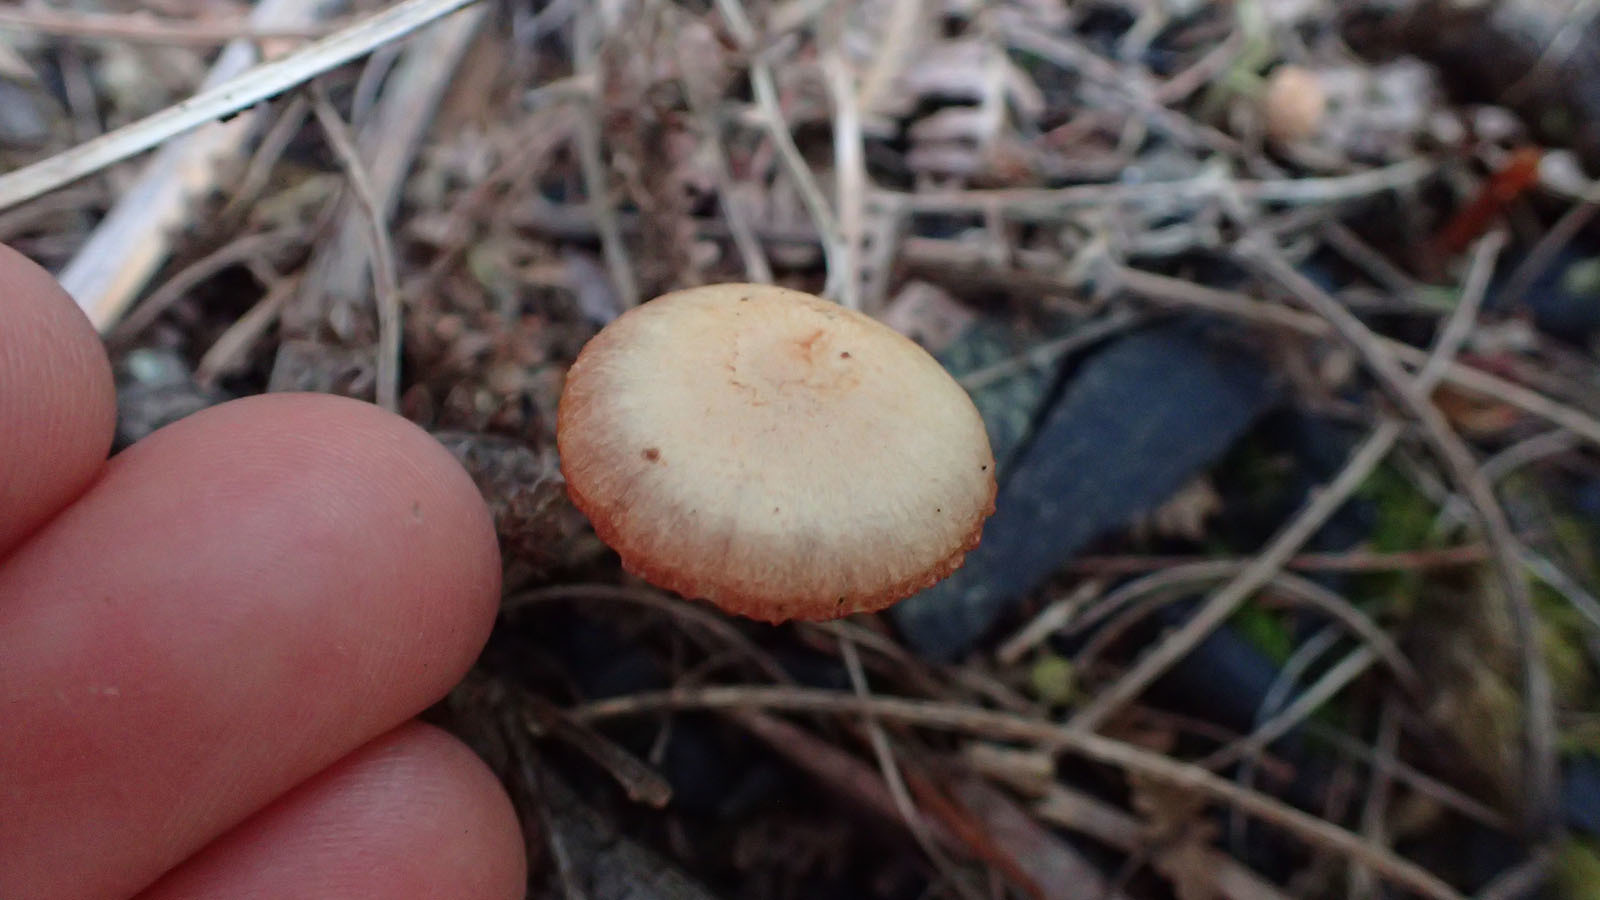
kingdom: Fungi
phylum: Basidiomycota
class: Agaricomycetes
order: Agaricales
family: Hydnangiaceae
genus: Laccaria
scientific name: Laccaria laccata
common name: Deceiver
